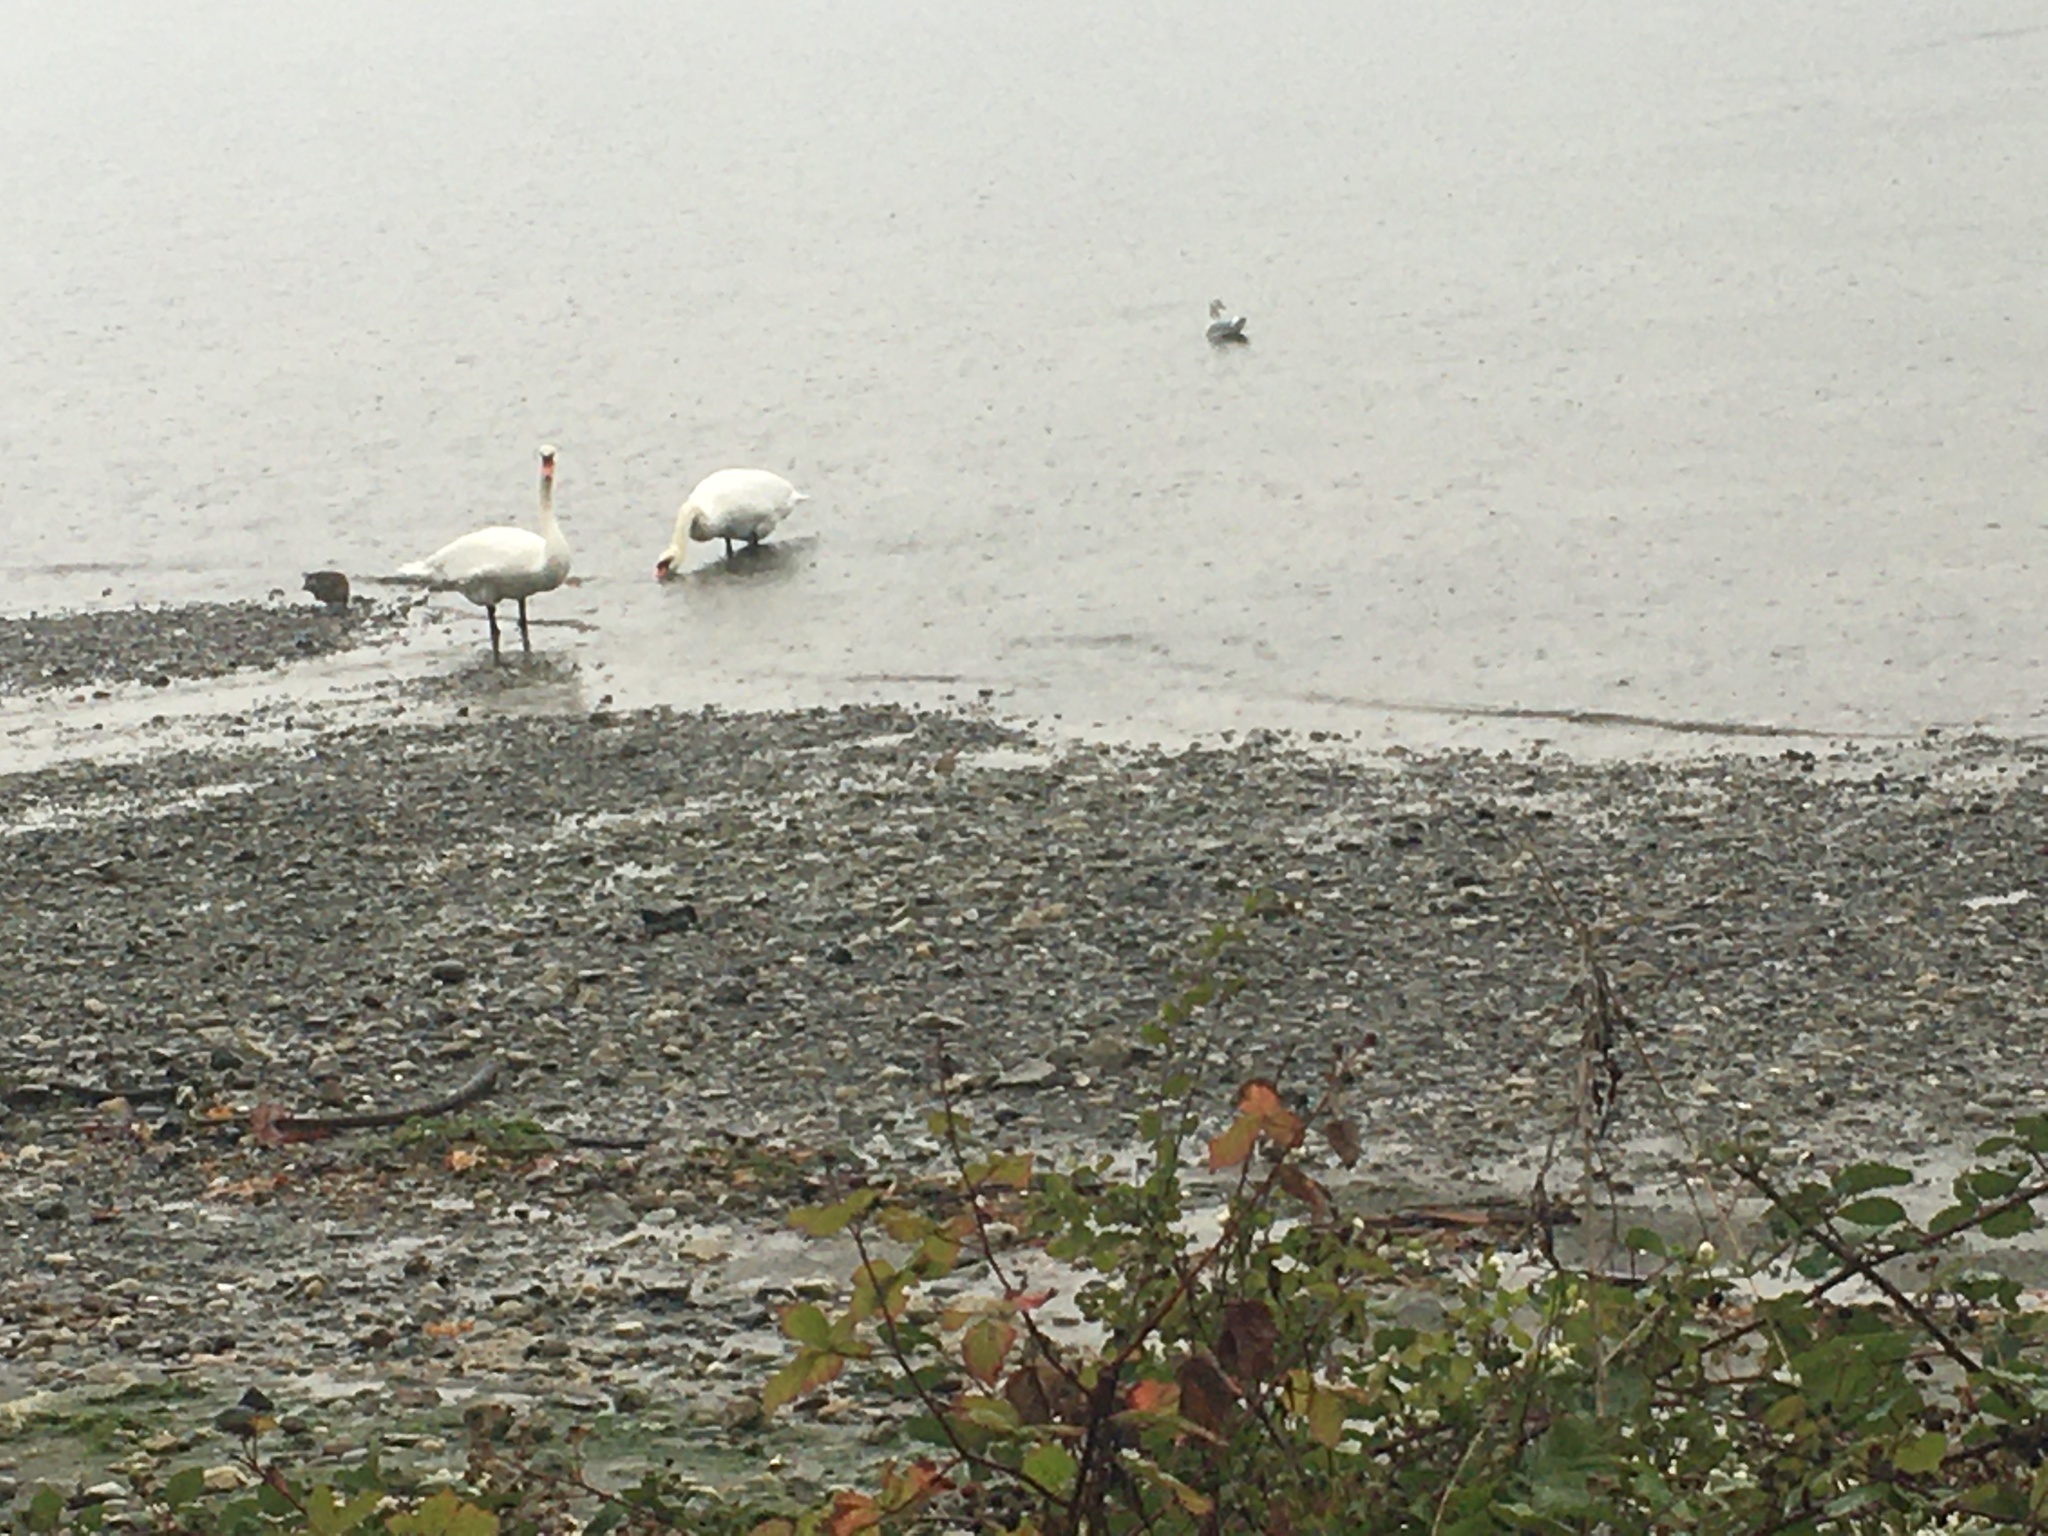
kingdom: Animalia
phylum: Chordata
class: Aves
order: Anseriformes
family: Anatidae
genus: Cygnus
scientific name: Cygnus olor
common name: Mute swan
